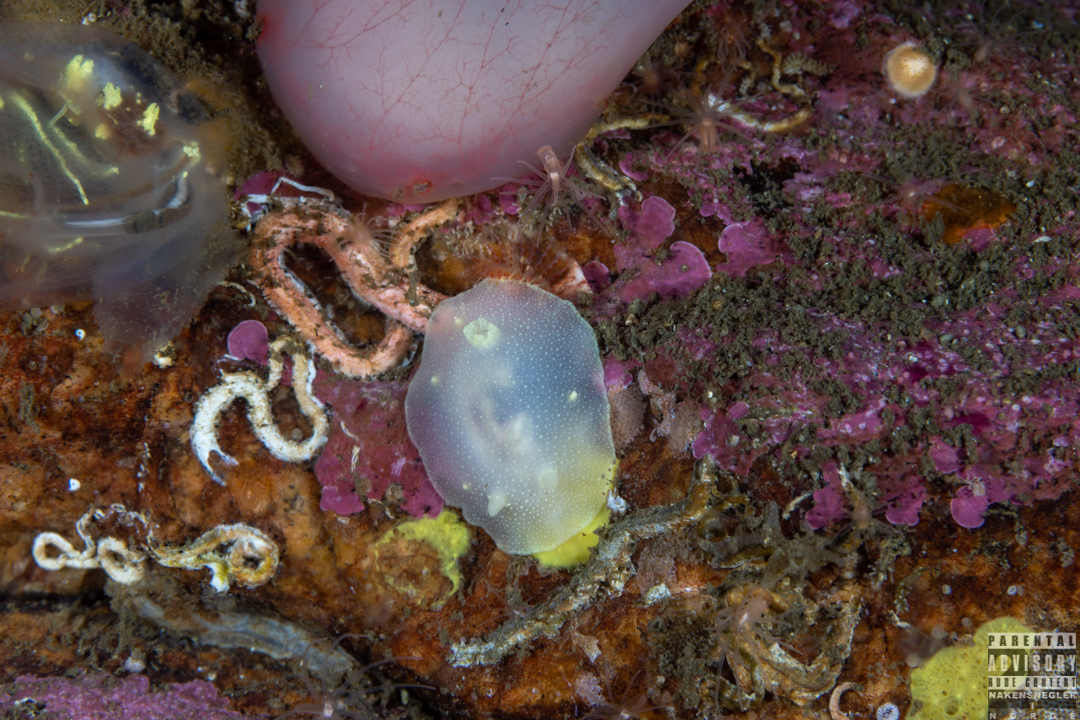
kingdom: Animalia
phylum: Mollusca
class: Gastropoda
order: Nudibranchia
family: Cadlinidae
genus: Cadlina
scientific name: Cadlina laevis
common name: White atlantic cadlina
